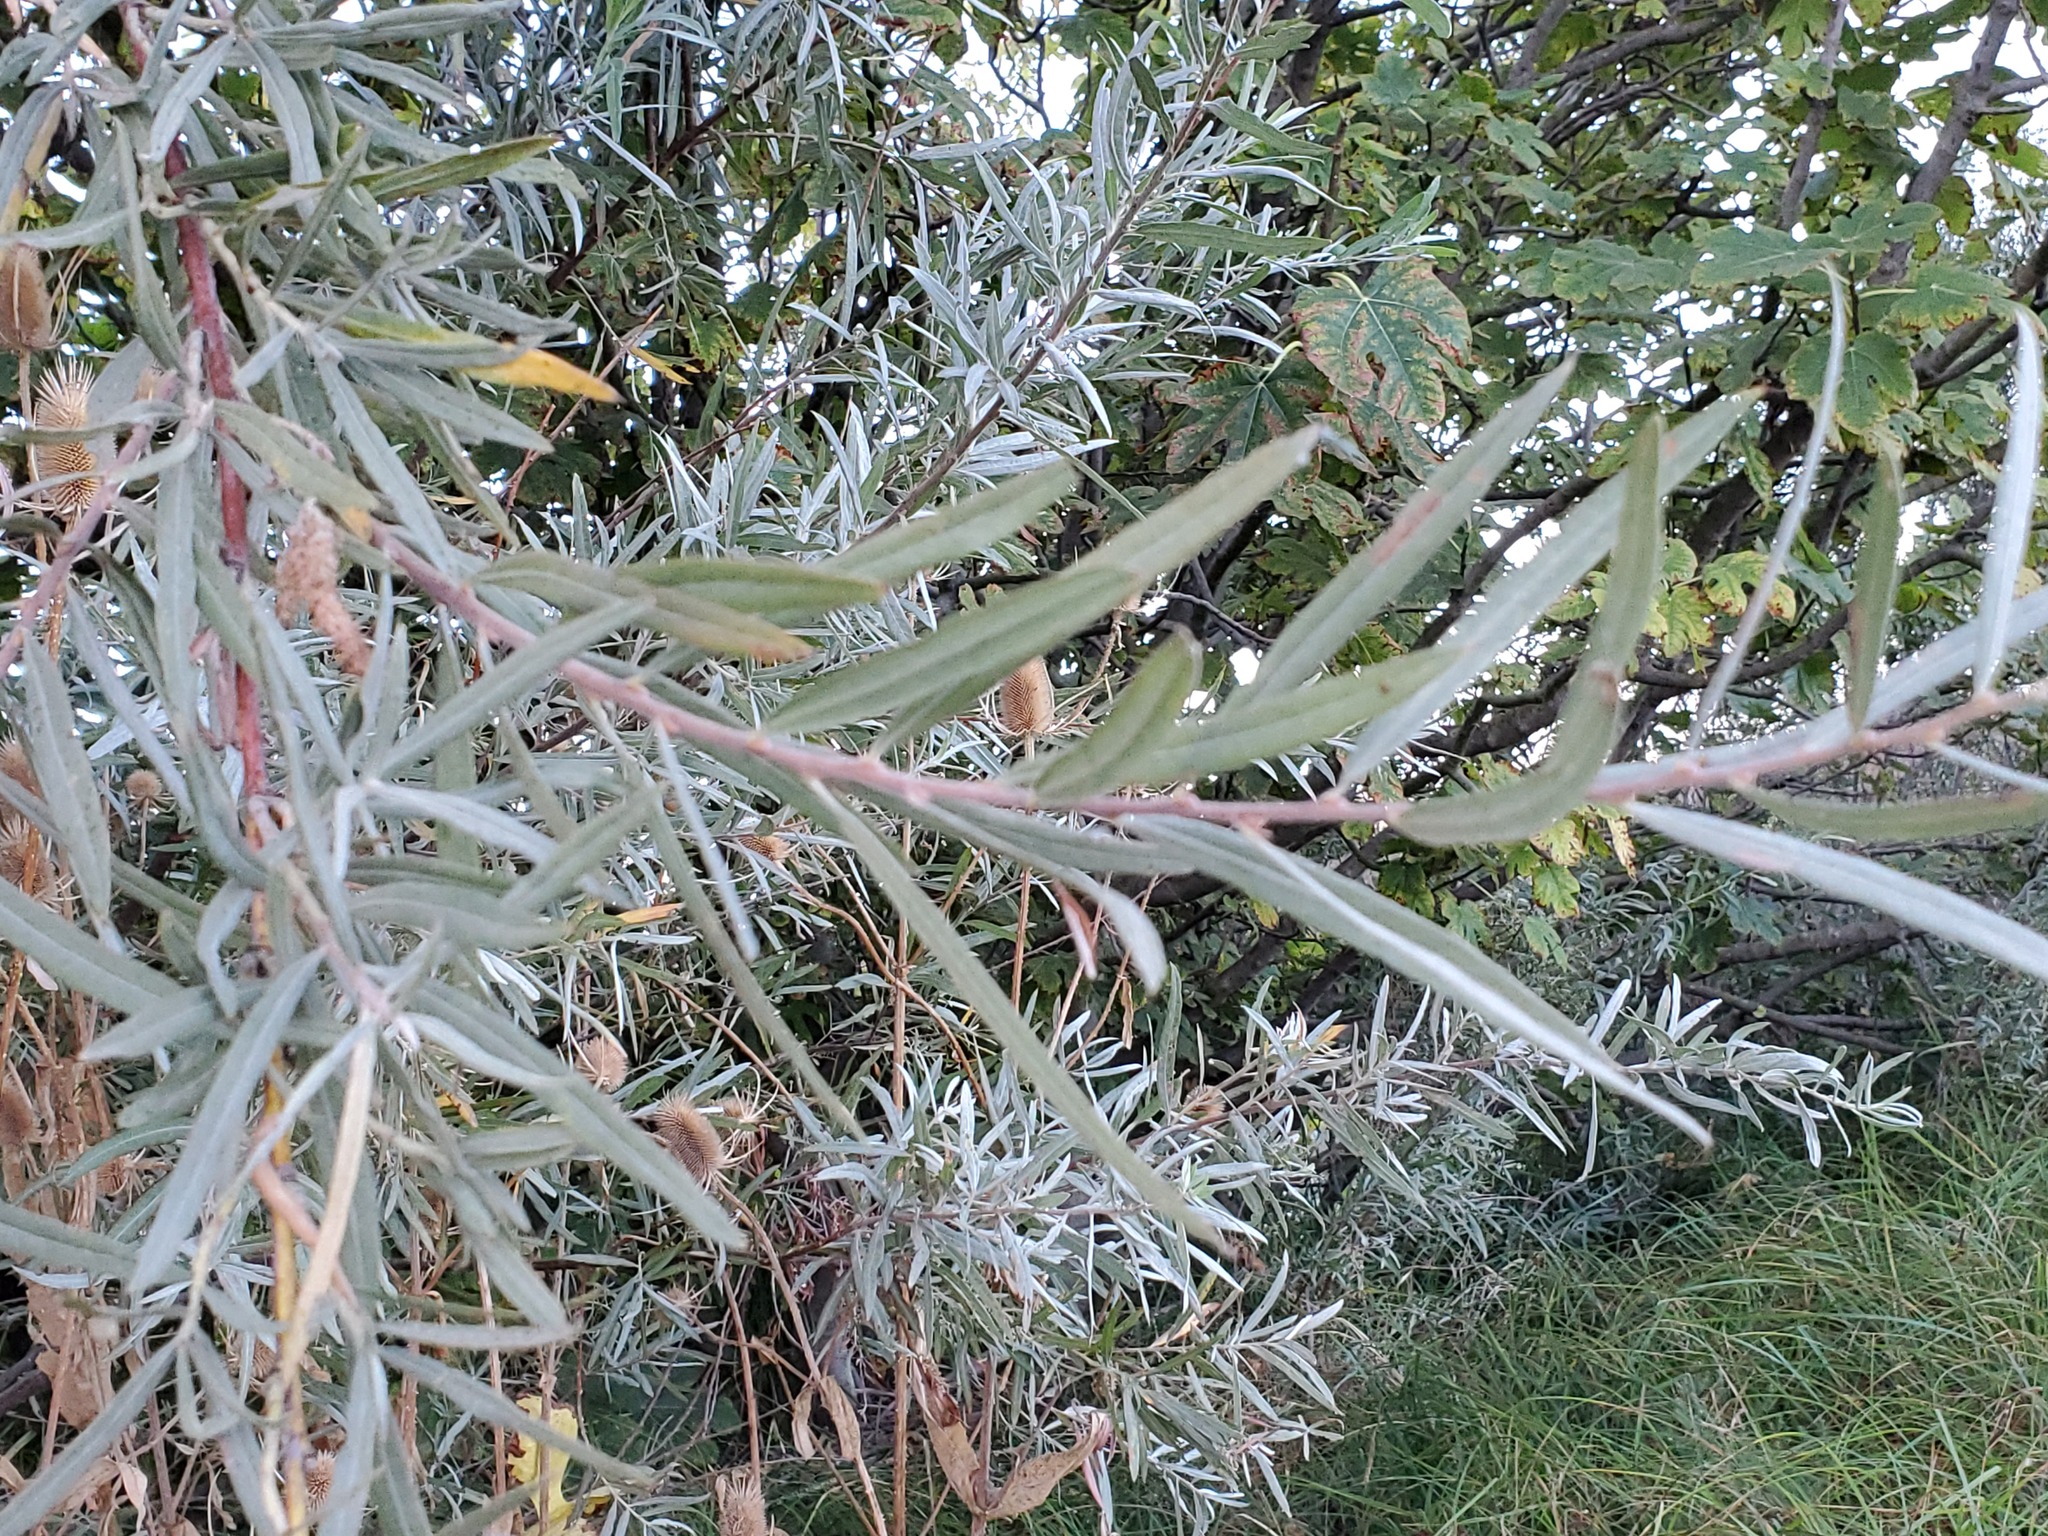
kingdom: Plantae
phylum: Tracheophyta
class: Magnoliopsida
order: Malpighiales
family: Salicaceae
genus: Salix
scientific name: Salix exigua
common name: Coyote willow
